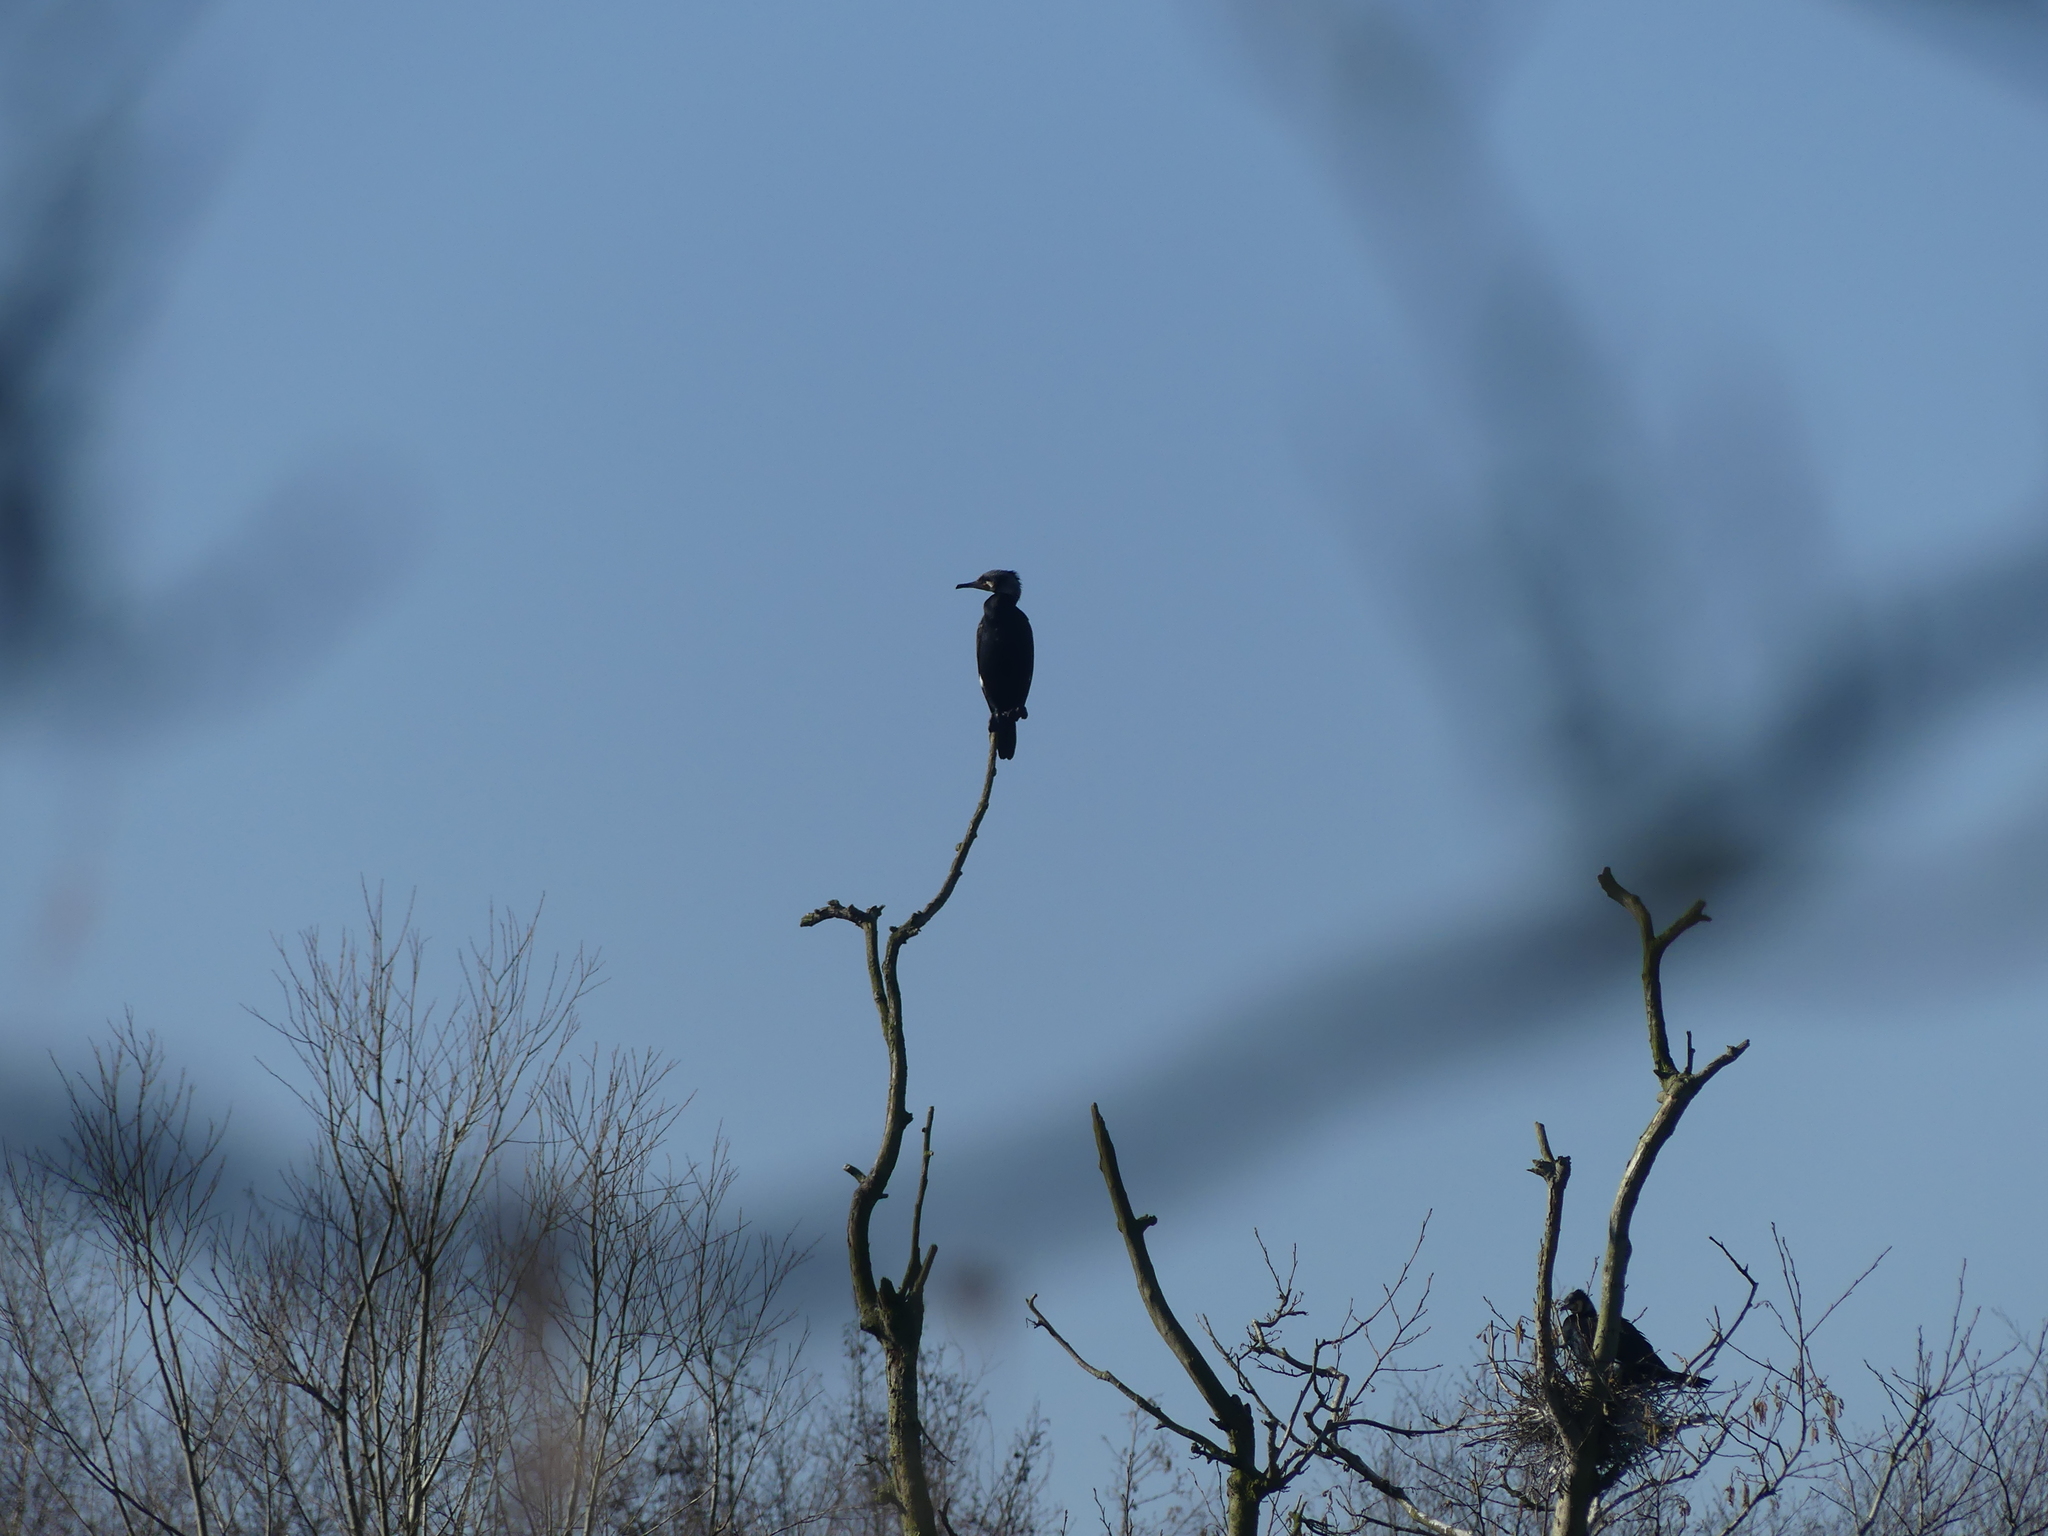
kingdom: Animalia
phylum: Chordata
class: Aves
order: Suliformes
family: Phalacrocoracidae
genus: Phalacrocorax
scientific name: Phalacrocorax carbo
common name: Great cormorant
